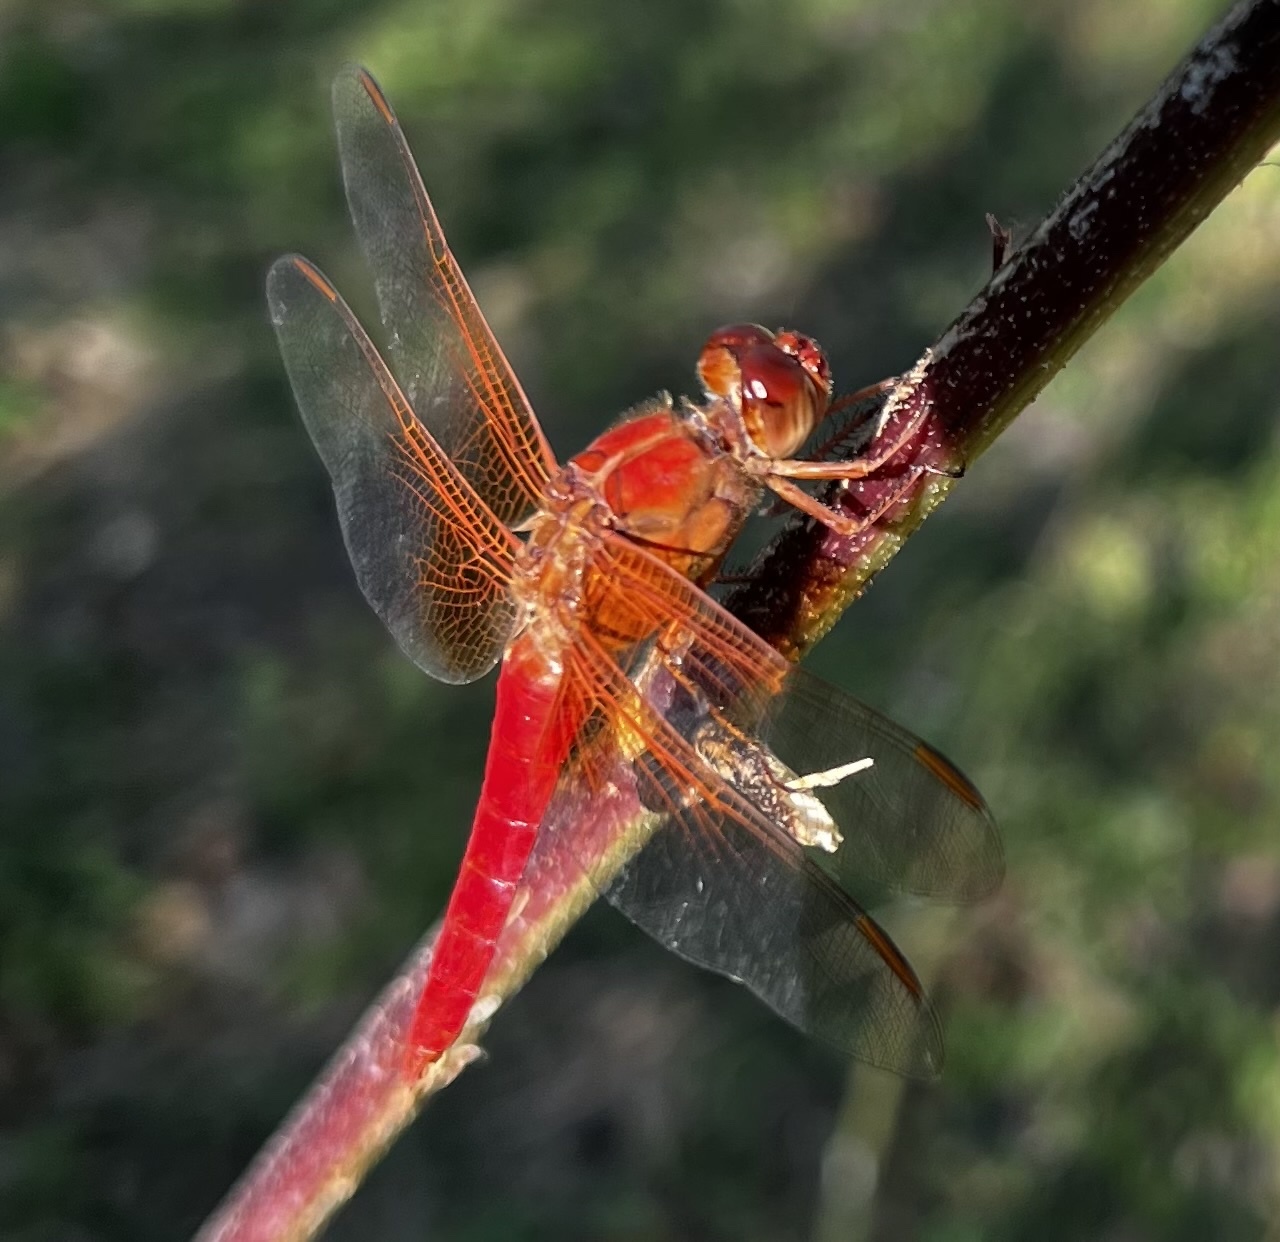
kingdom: Animalia
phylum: Arthropoda
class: Insecta
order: Odonata
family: Libellulidae
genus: Libellula
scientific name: Libellula croceipennis
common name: Neon skimmer
